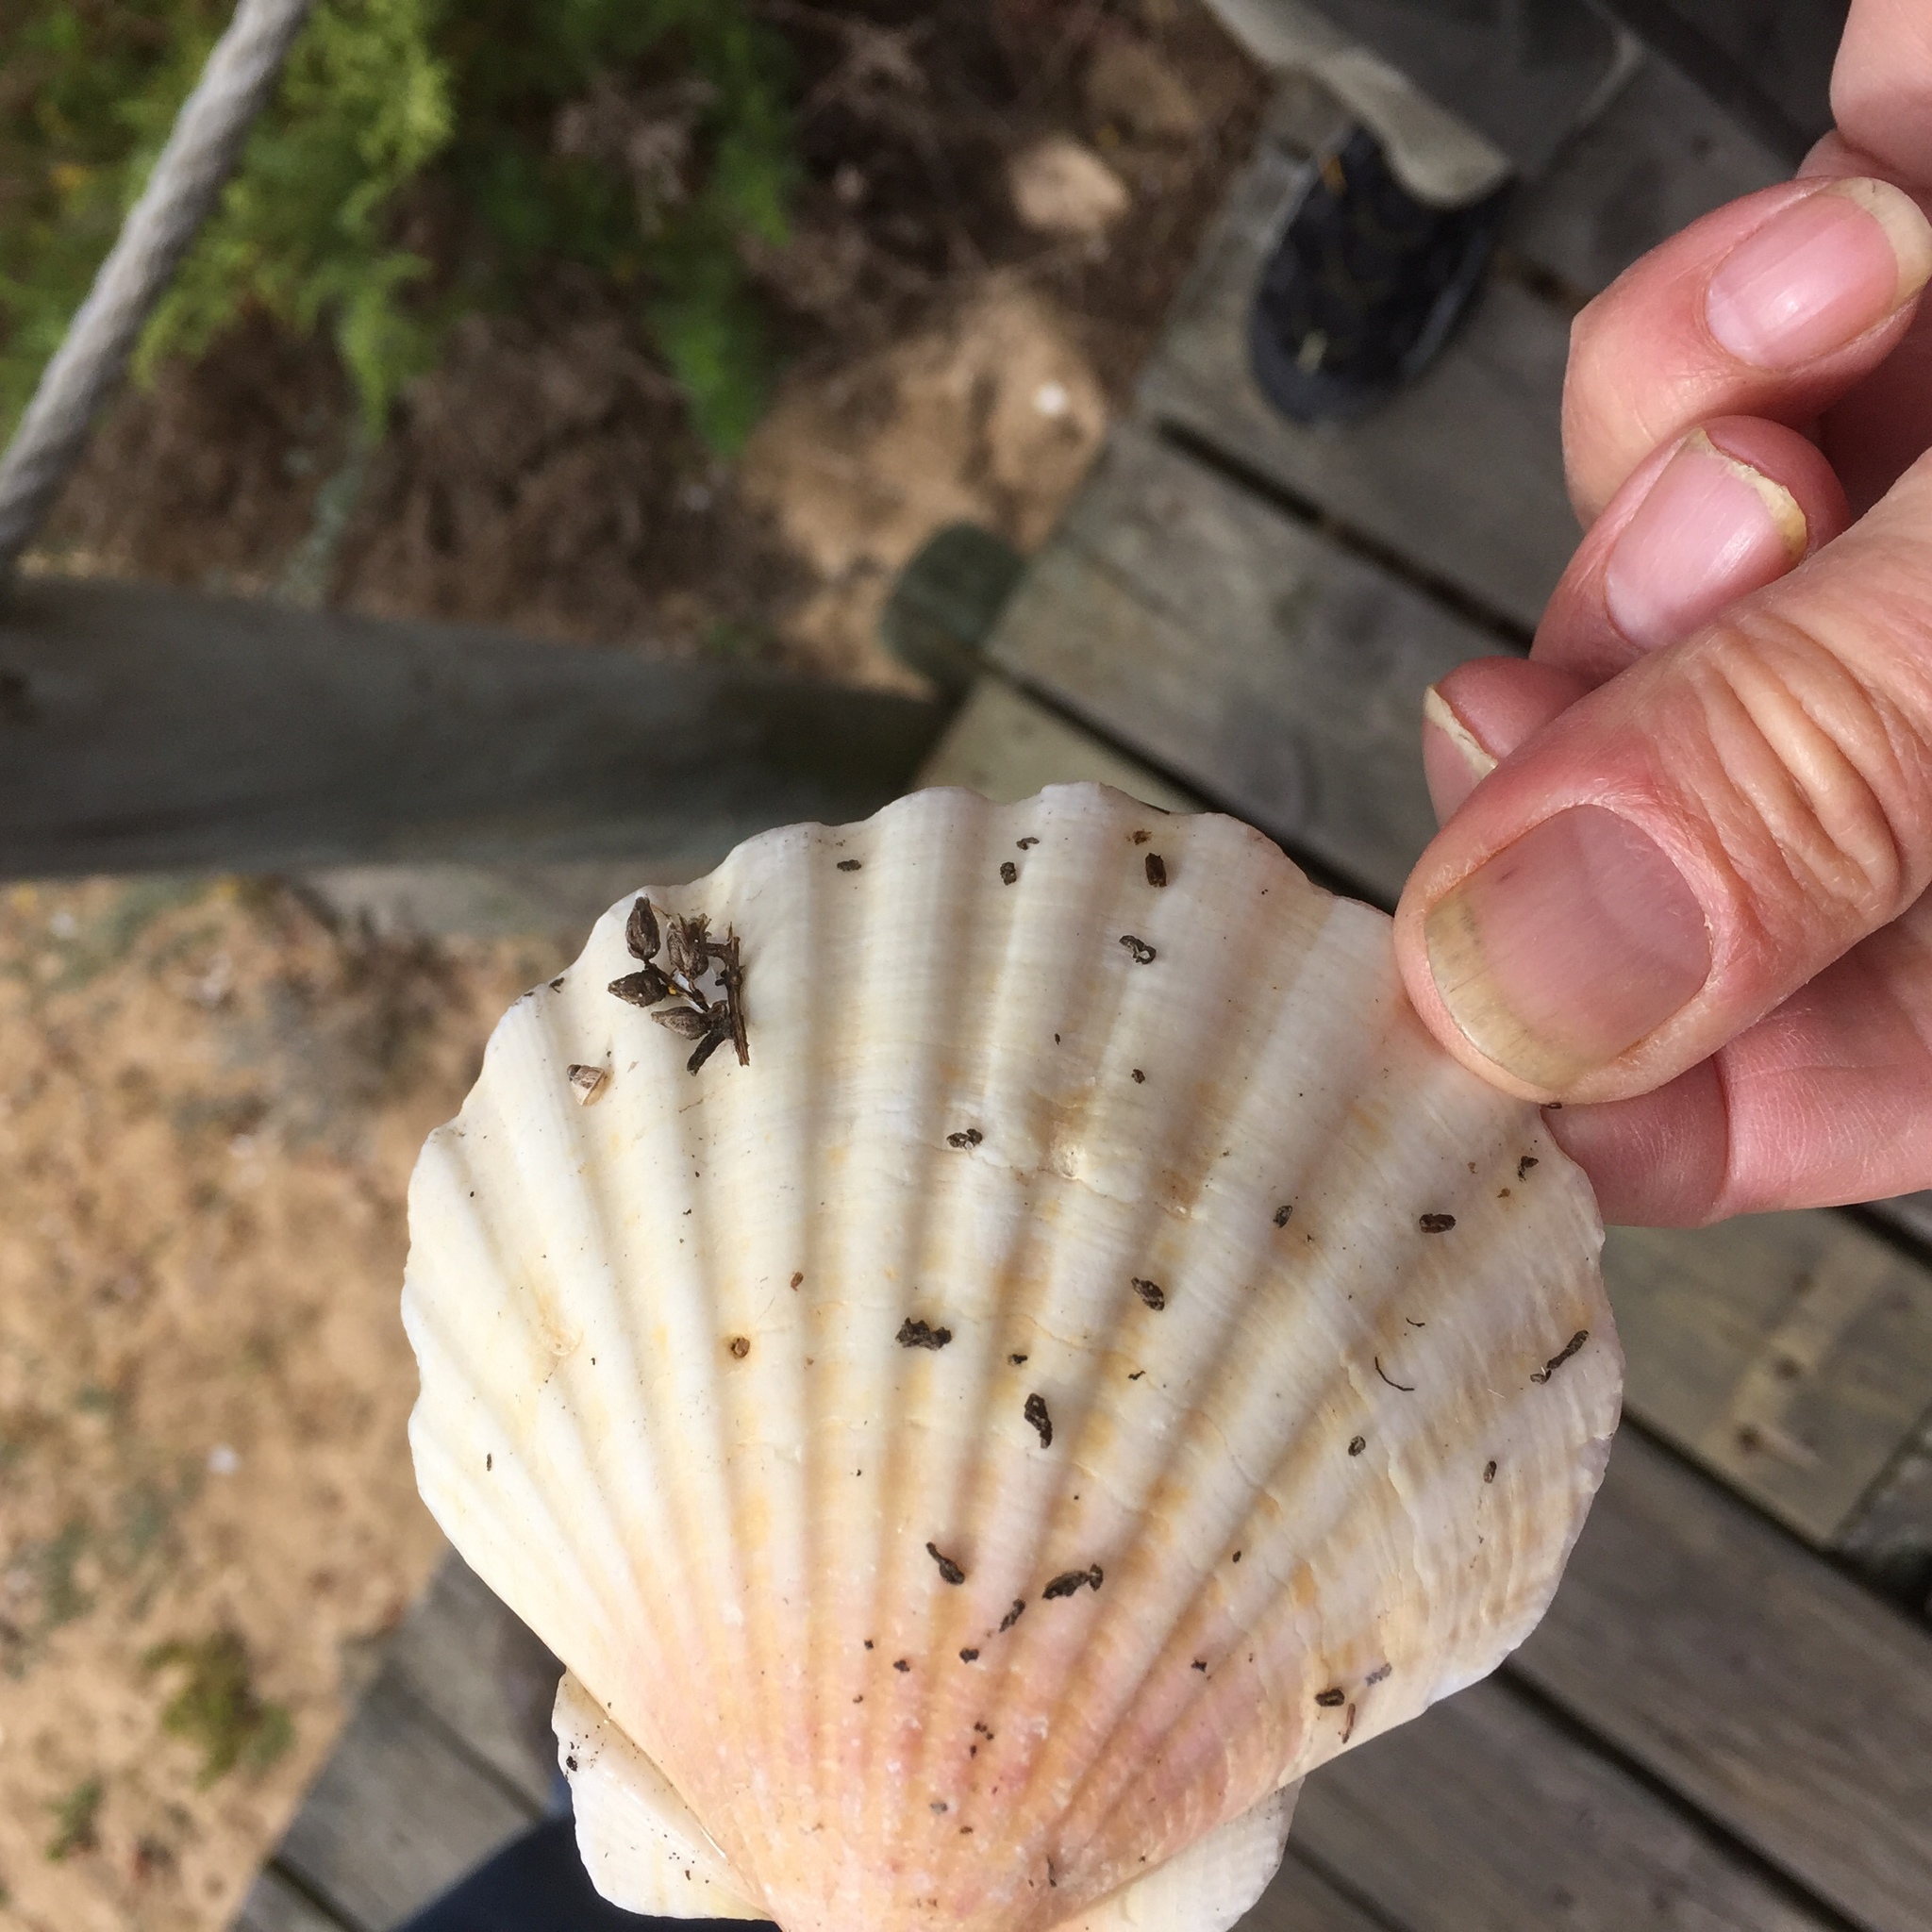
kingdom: Animalia
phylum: Mollusca
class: Bivalvia
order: Pectinida
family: Pectinidae
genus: Pecten
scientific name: Pecten maximus
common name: Great scallop
